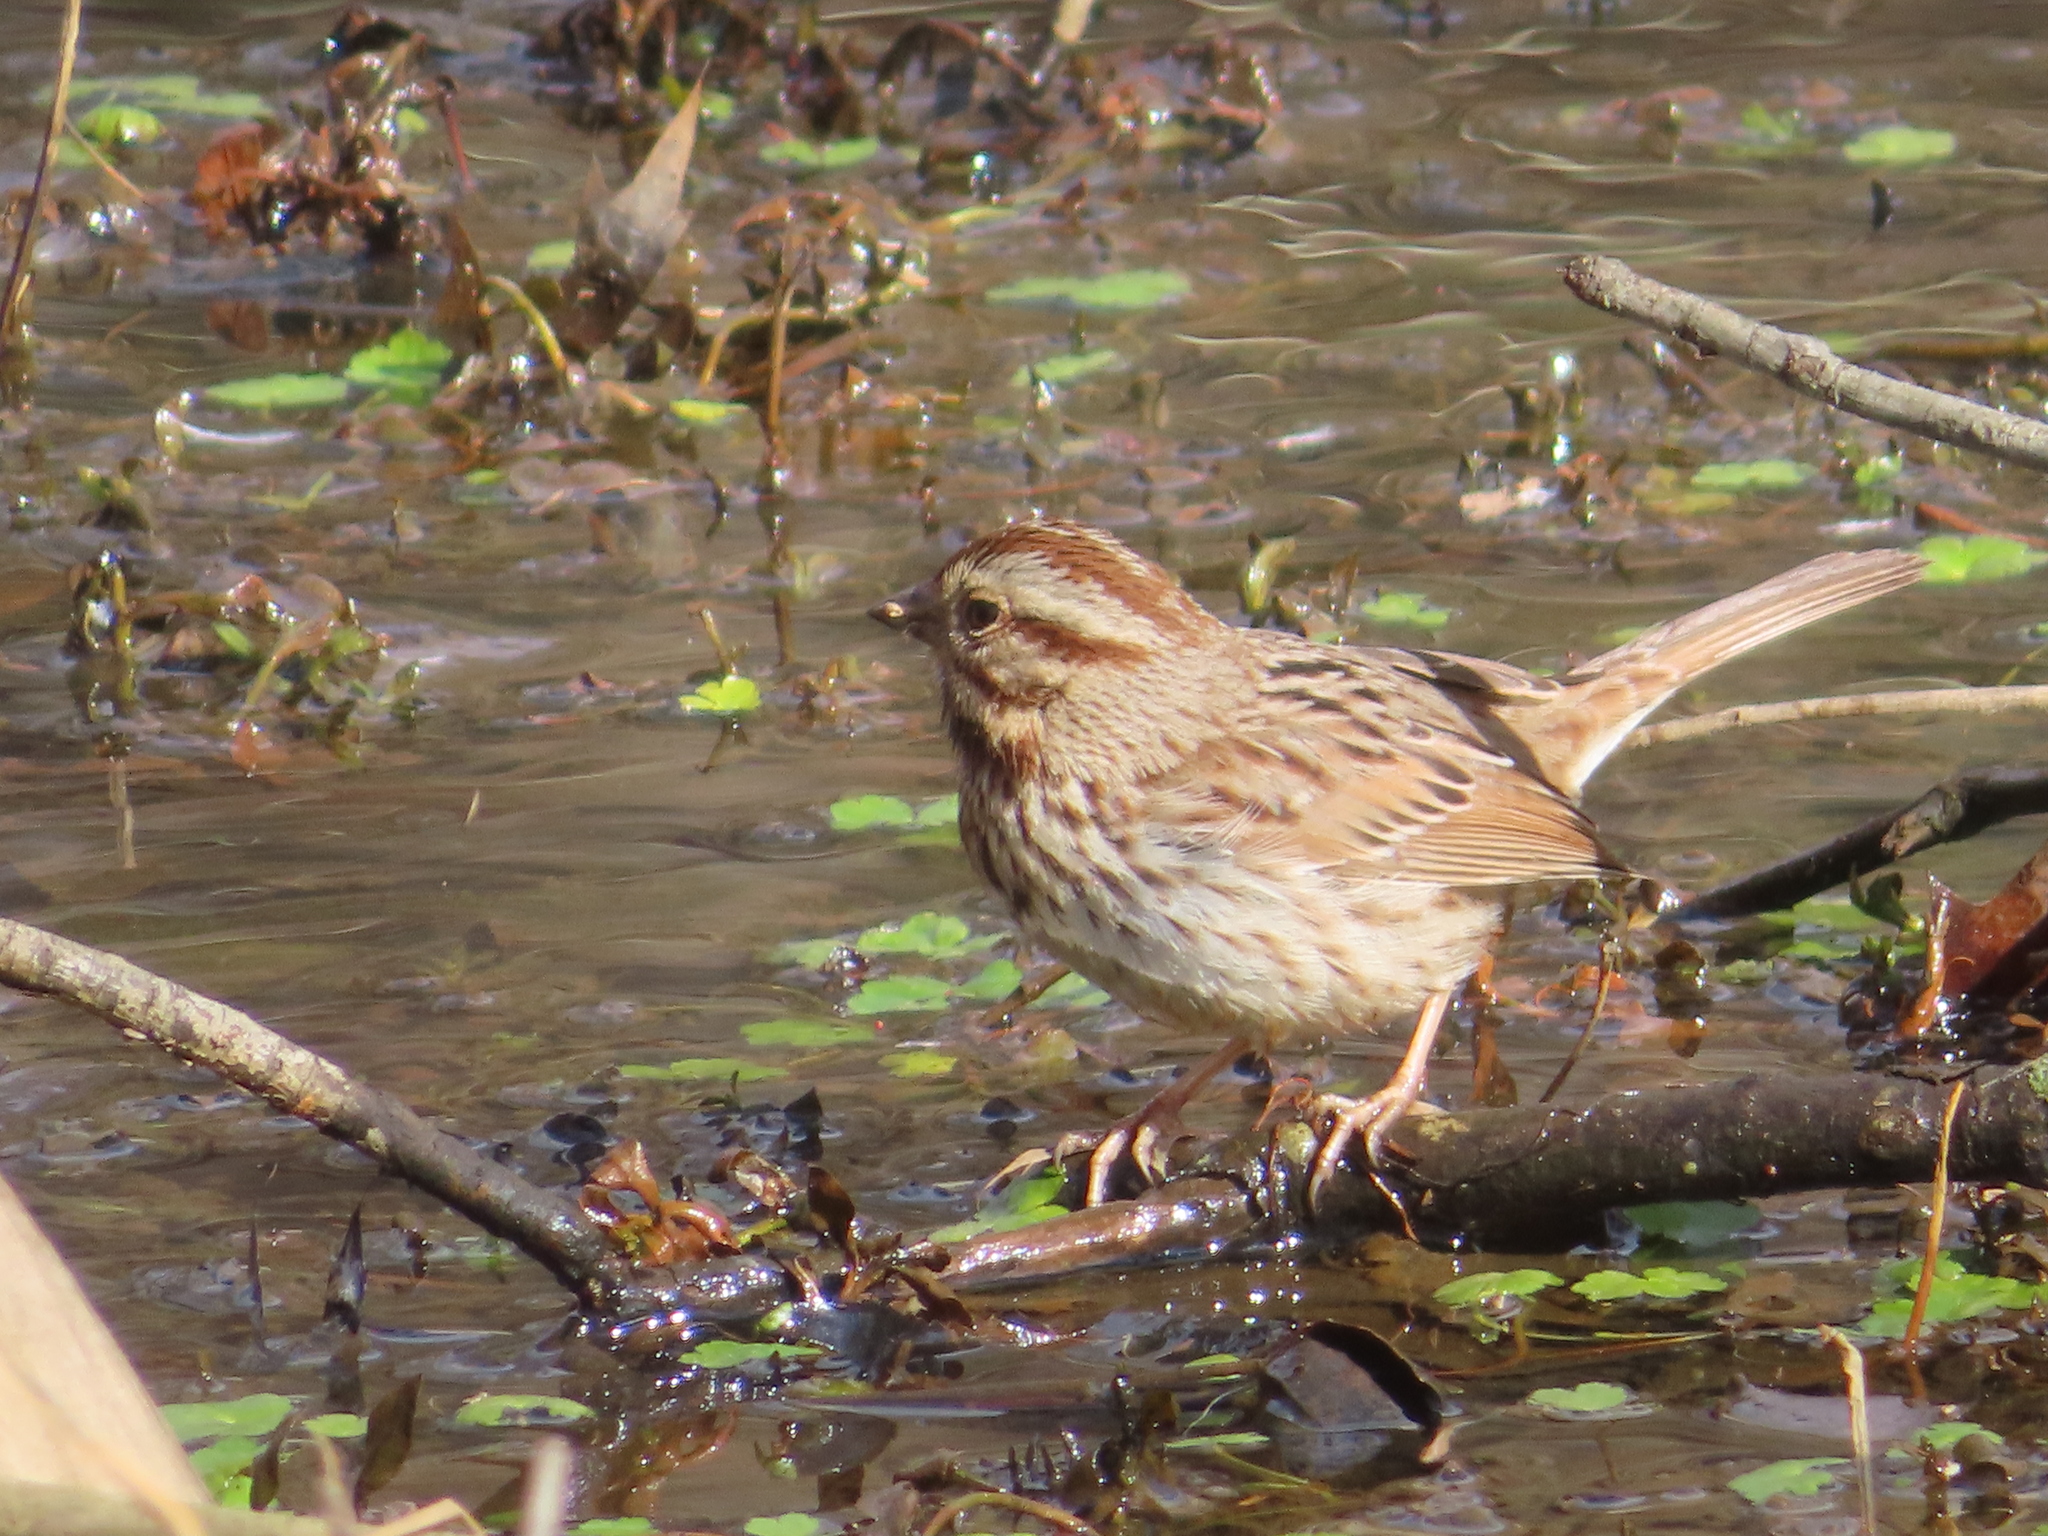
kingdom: Animalia
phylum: Chordata
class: Aves
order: Passeriformes
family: Passerellidae
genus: Melospiza
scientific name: Melospiza melodia
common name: Song sparrow
